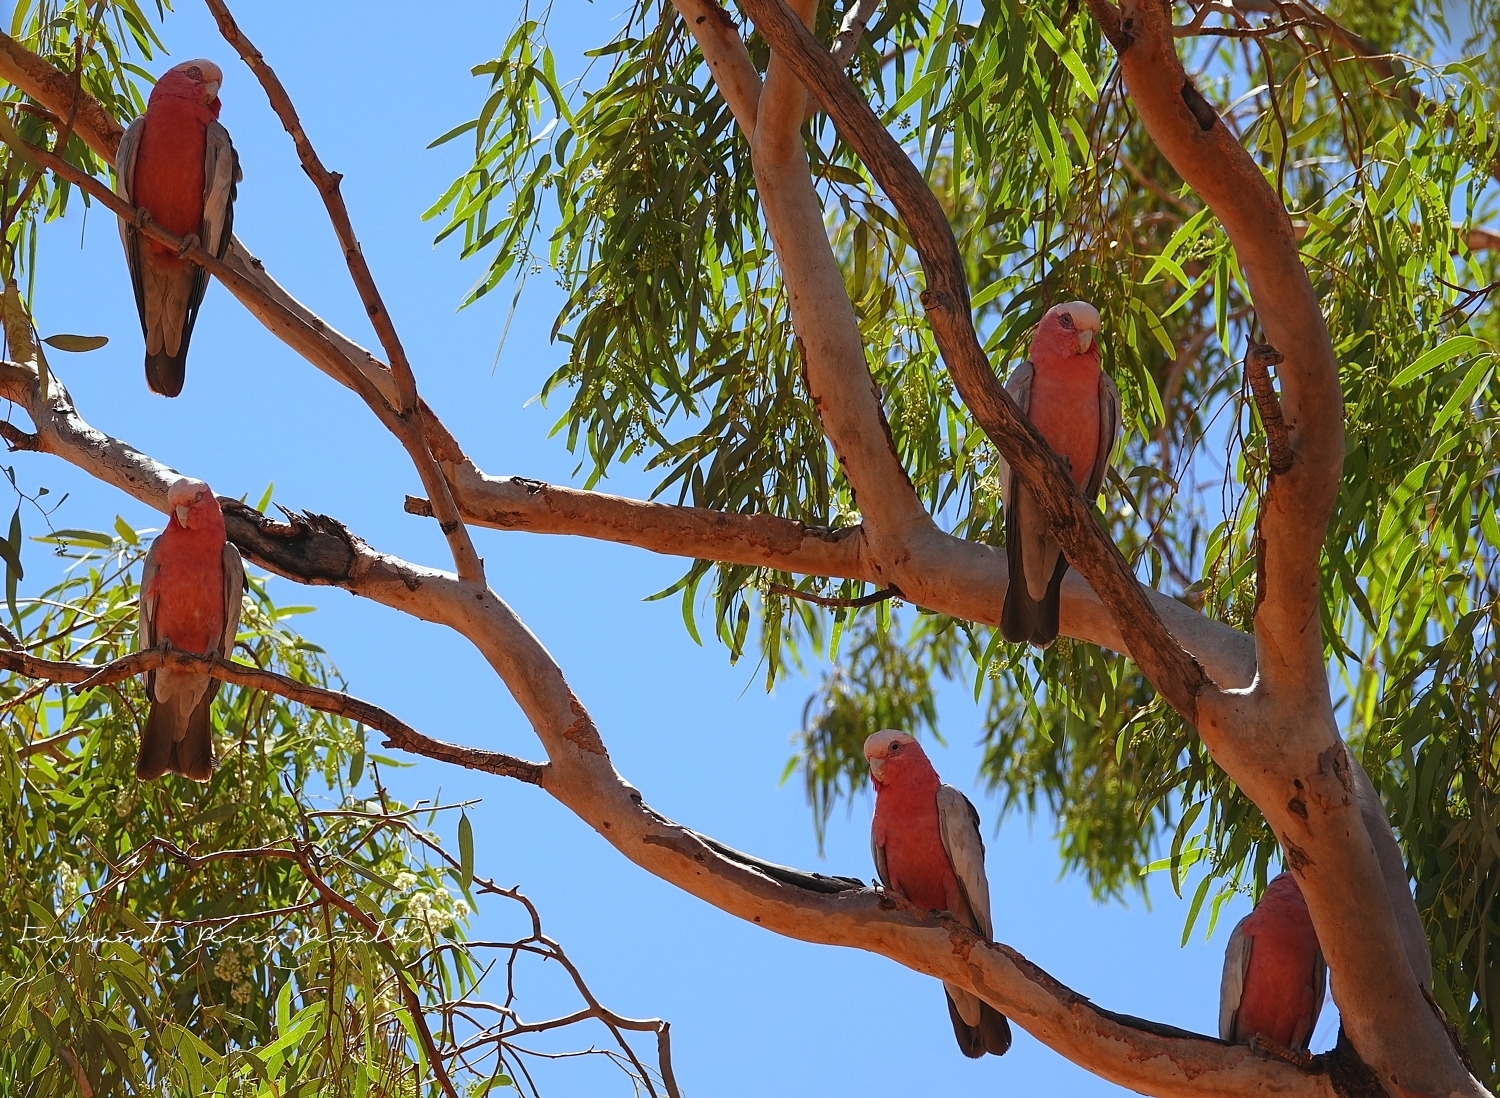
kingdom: Animalia
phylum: Chordata
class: Aves
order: Psittaciformes
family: Psittacidae
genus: Eolophus
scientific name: Eolophus roseicapilla
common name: Galah
